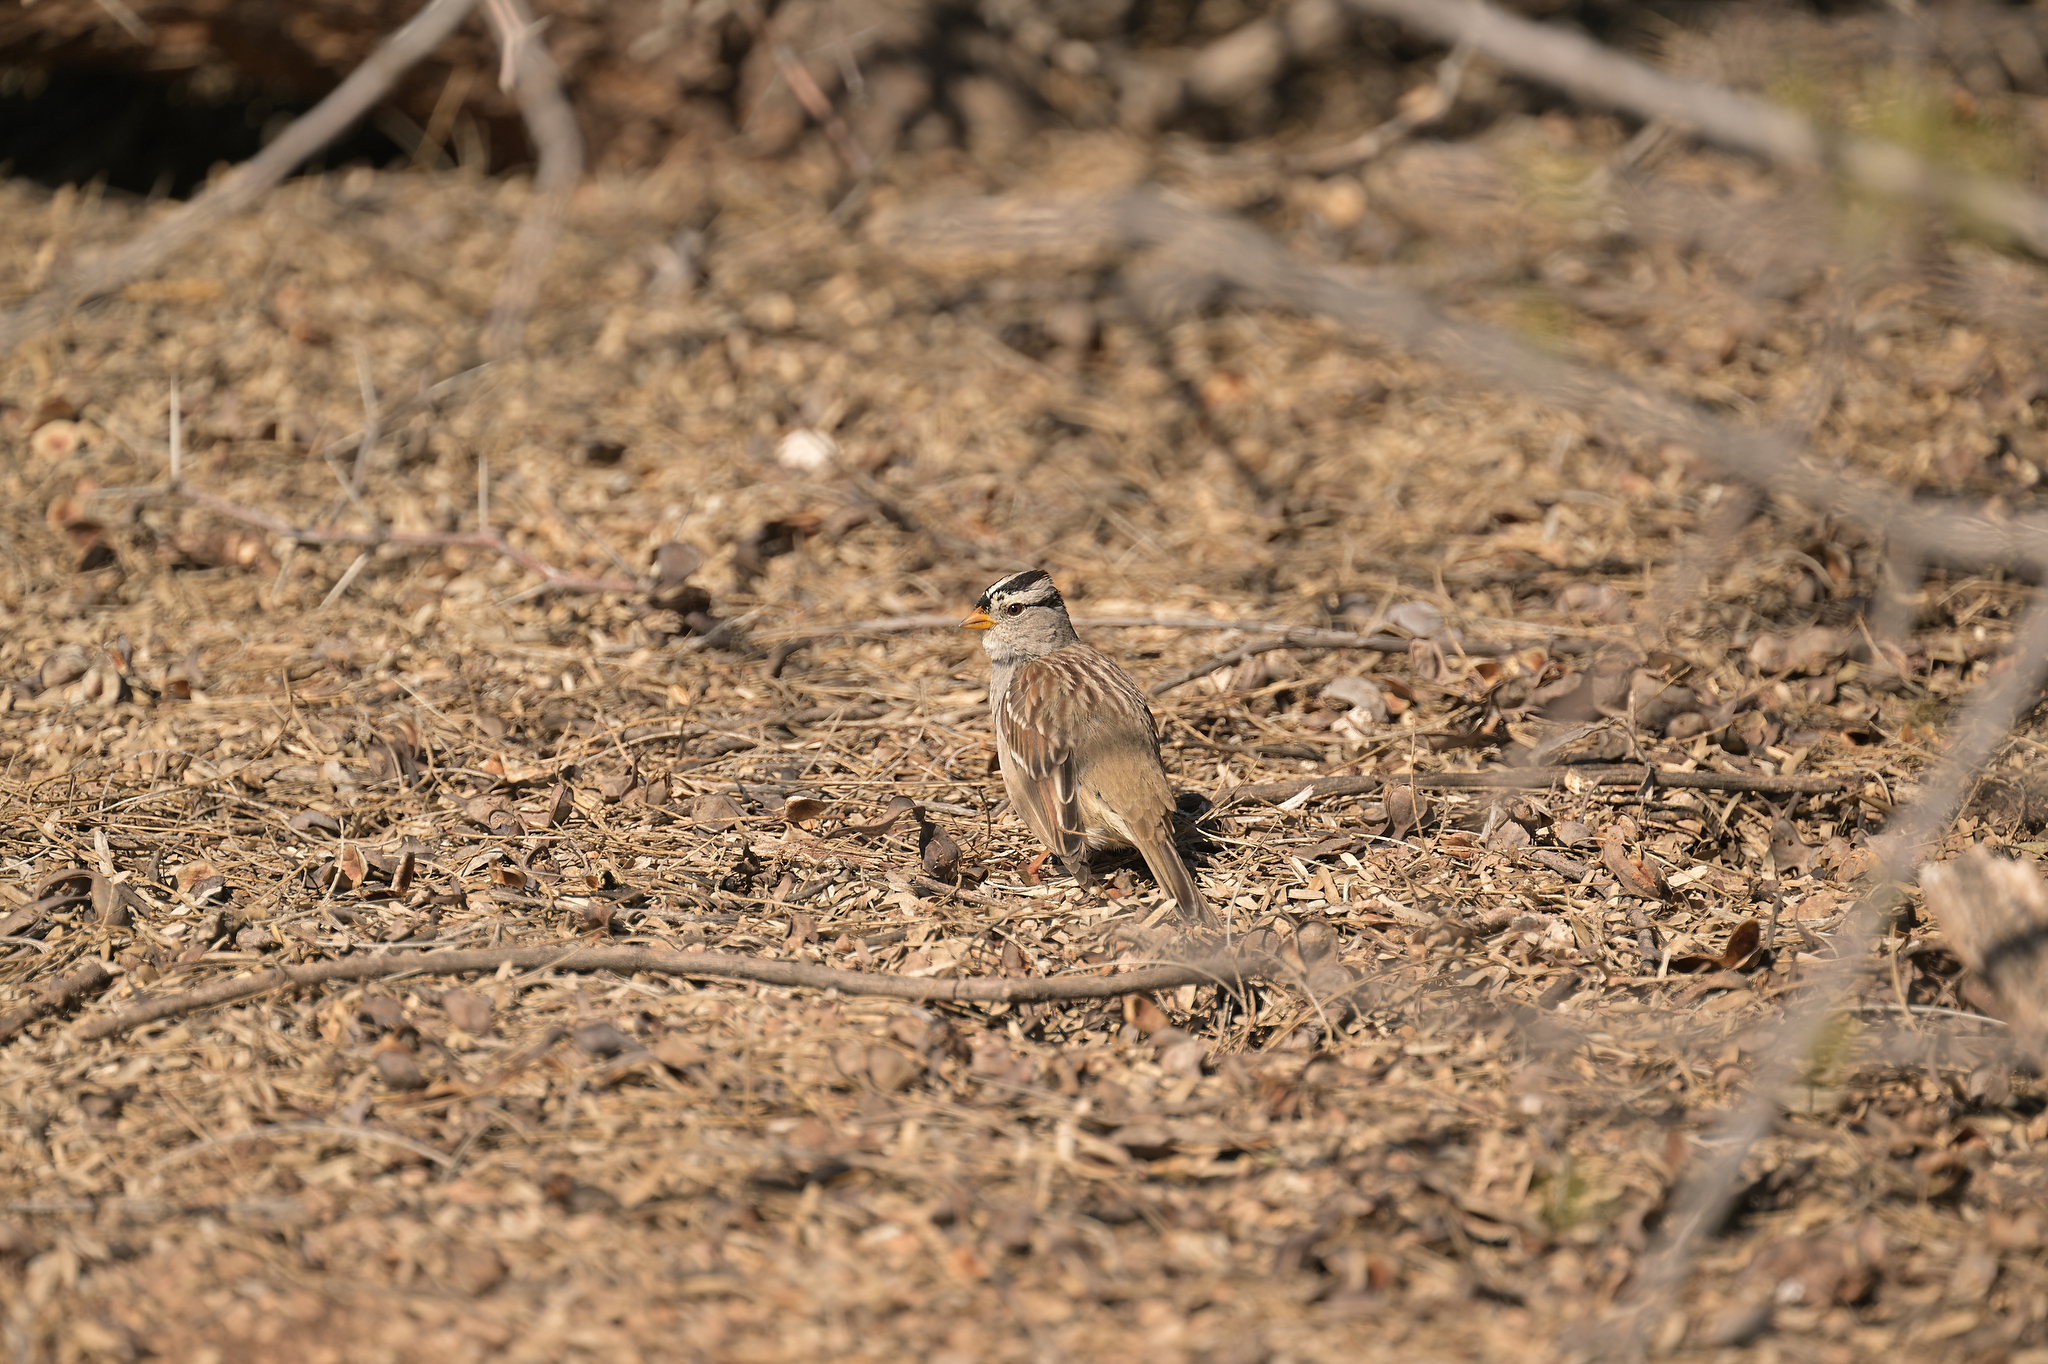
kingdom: Animalia
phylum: Chordata
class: Aves
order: Passeriformes
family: Passerellidae
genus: Zonotrichia
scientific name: Zonotrichia leucophrys
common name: White-crowned sparrow
